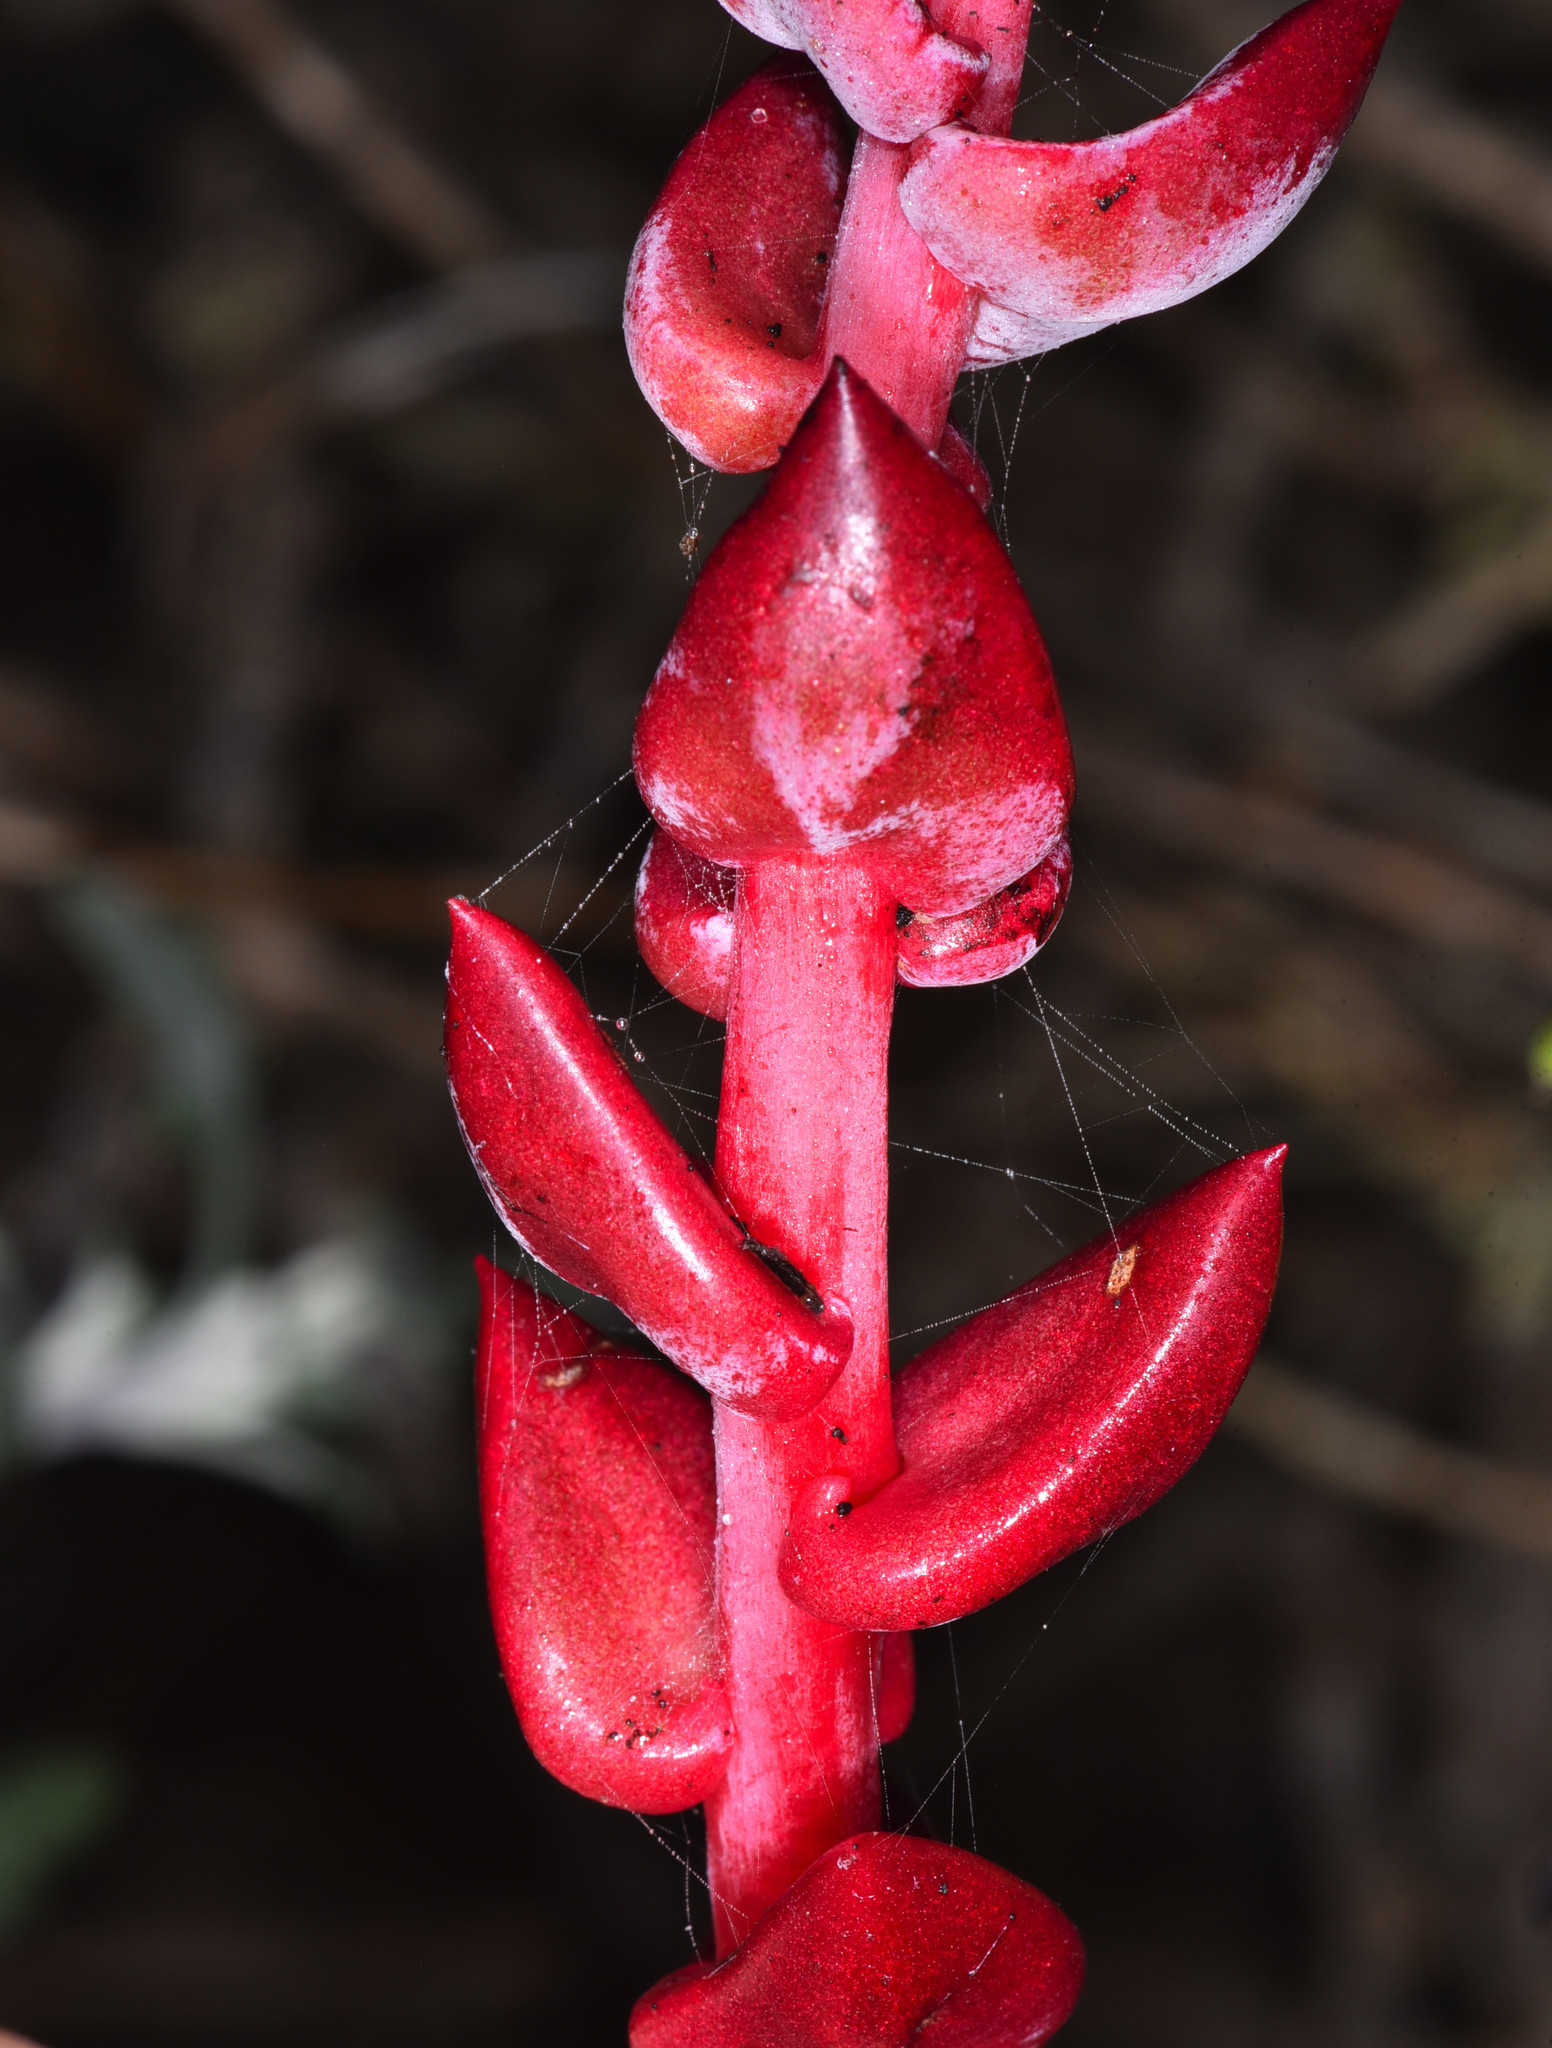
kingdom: Plantae
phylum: Tracheophyta
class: Magnoliopsida
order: Saxifragales
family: Crassulaceae
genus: Dudleya
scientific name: Dudleya farinosa
